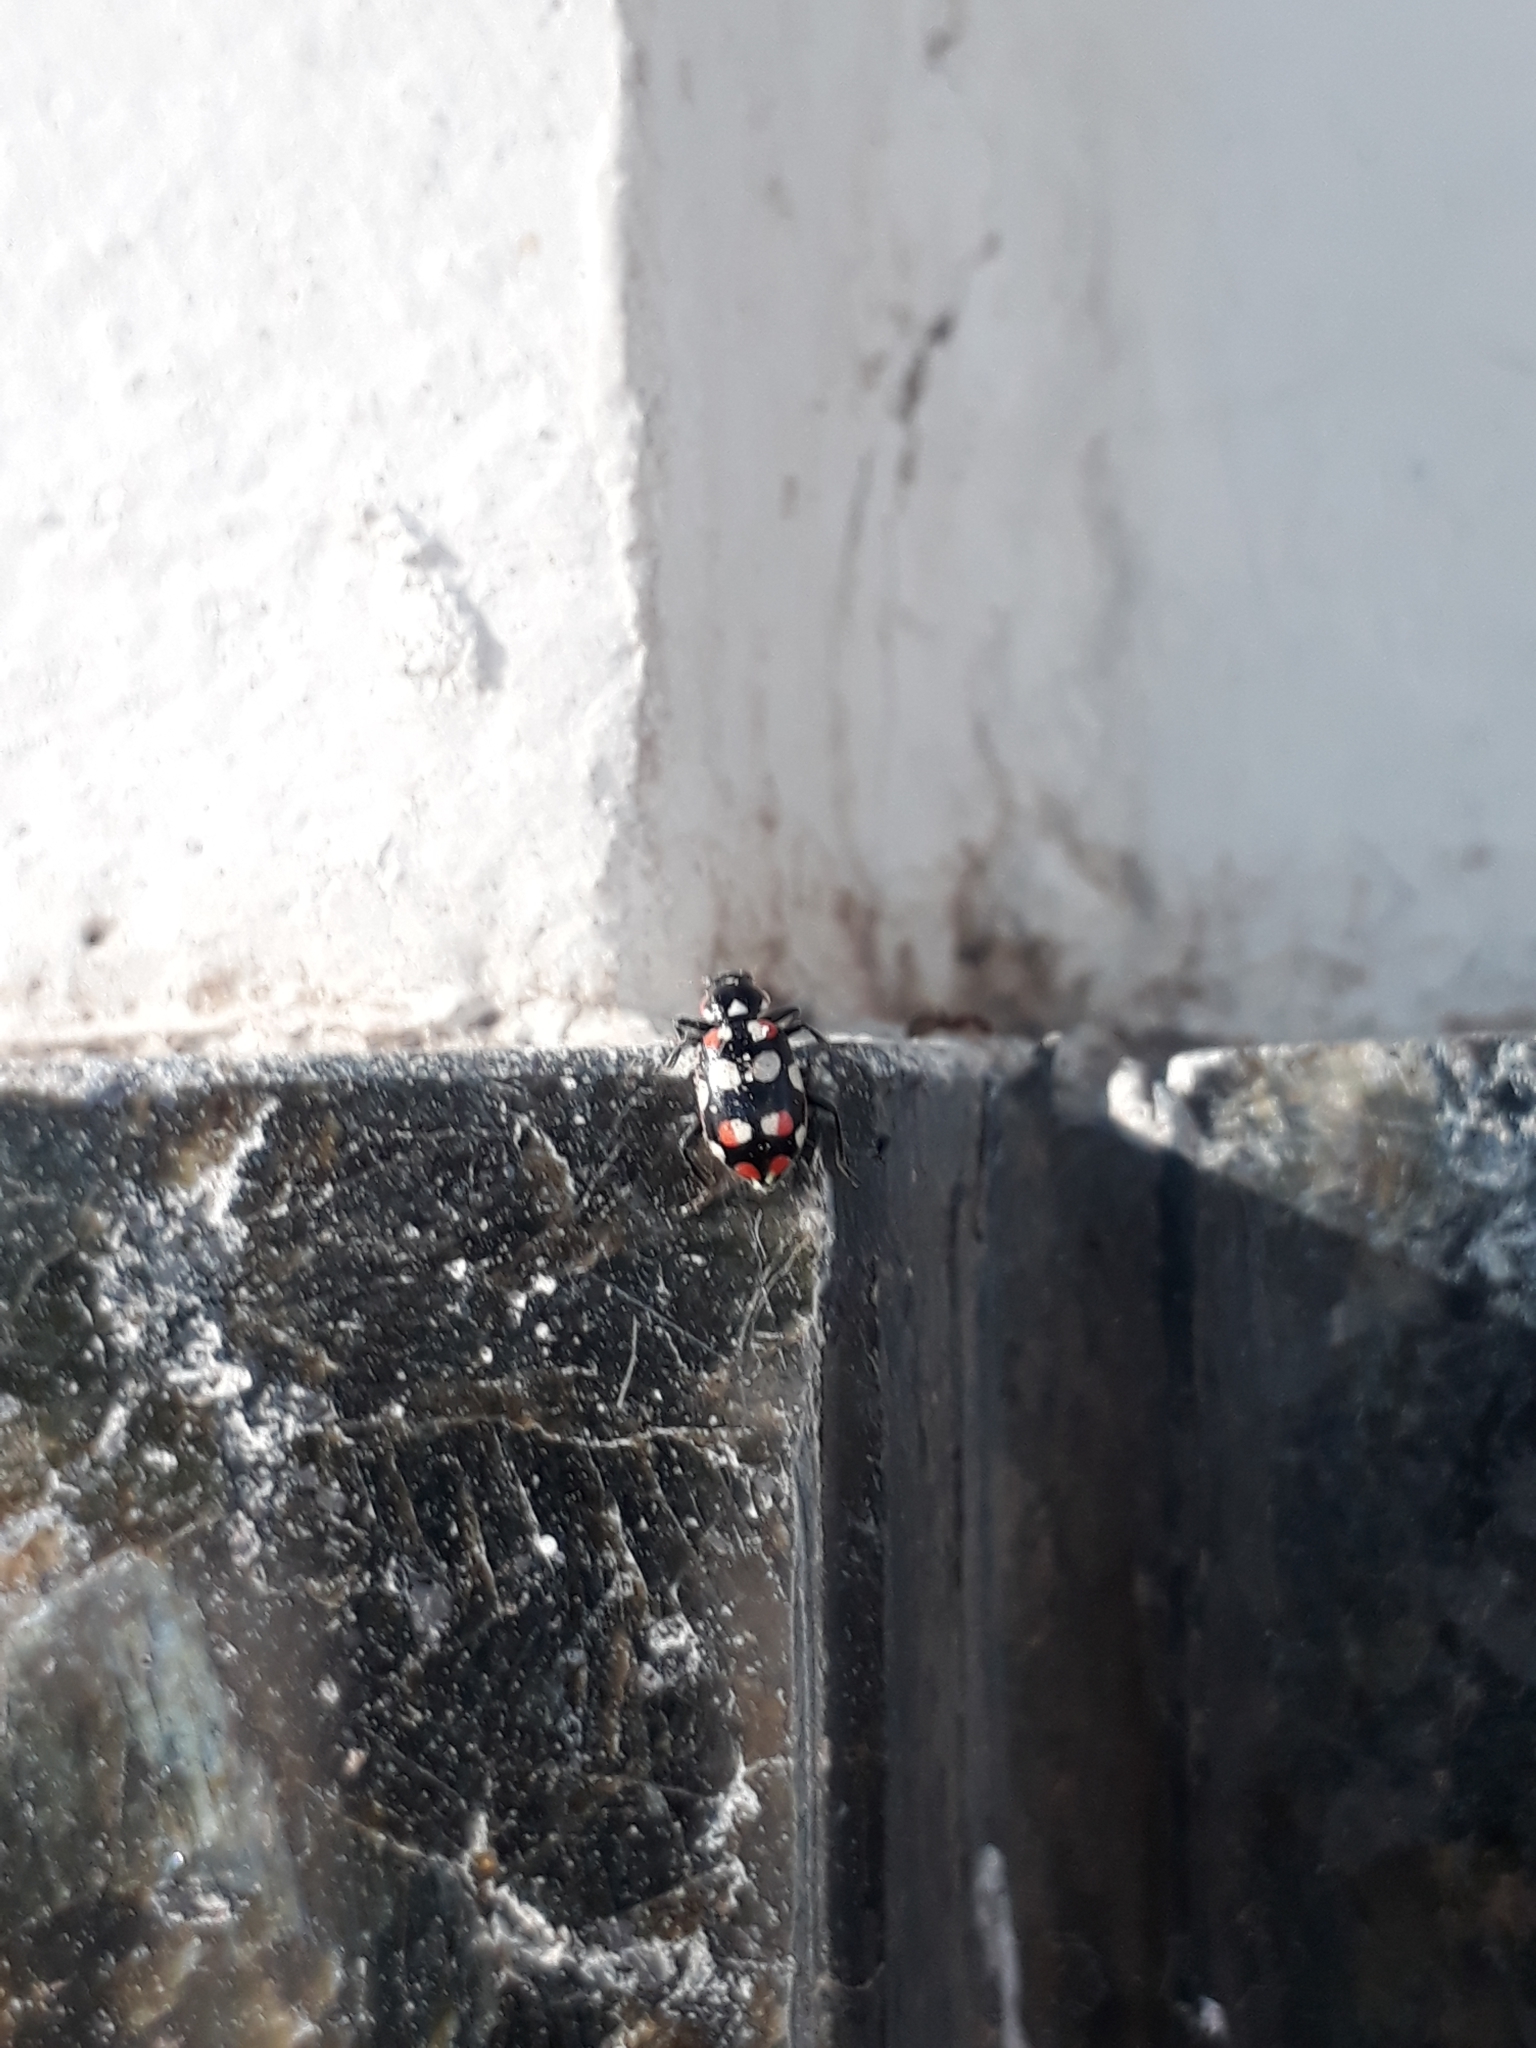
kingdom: Animalia
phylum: Arthropoda
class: Insecta
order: Coleoptera
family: Coccinellidae
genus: Eriopis
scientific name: Eriopis connexa
